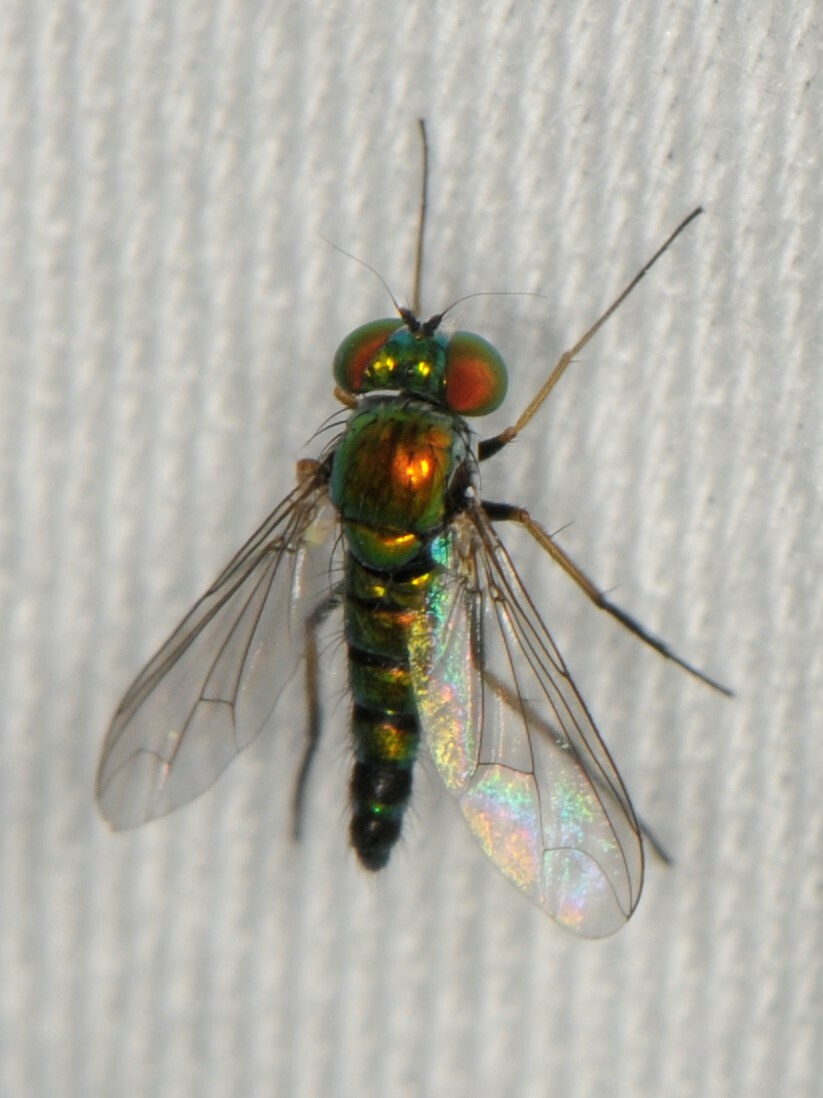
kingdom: Animalia
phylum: Arthropoda
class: Insecta
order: Diptera
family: Dolichopodidae
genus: Condylostylus
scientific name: Condylostylus
